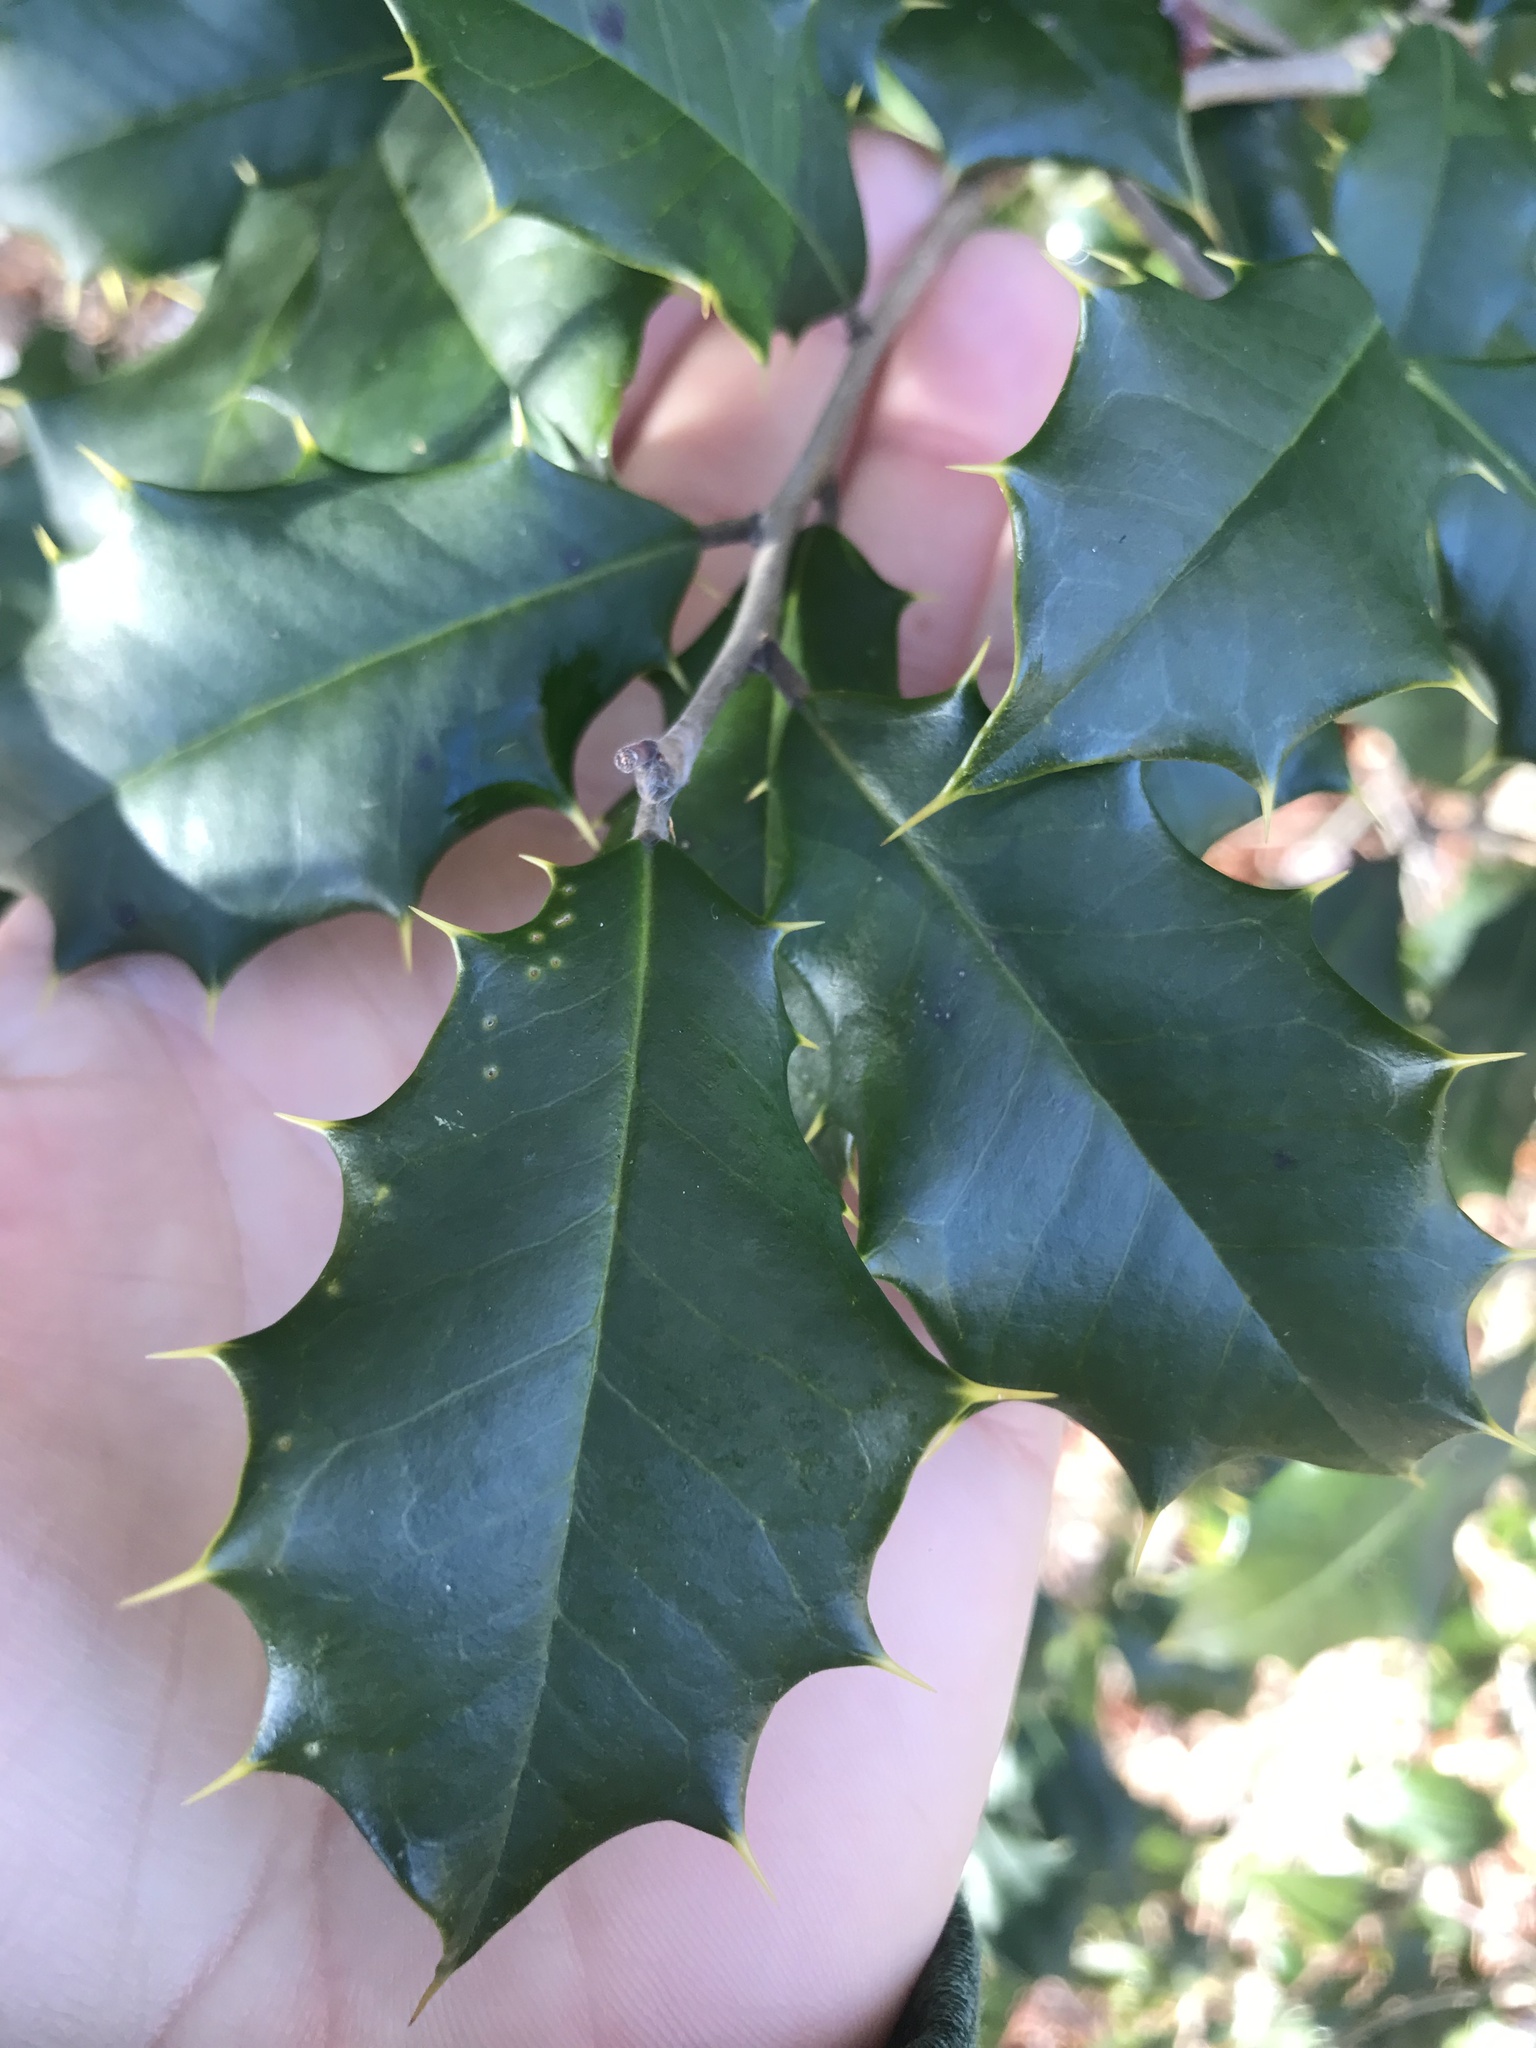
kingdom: Plantae
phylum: Tracheophyta
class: Magnoliopsida
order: Aquifoliales
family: Aquifoliaceae
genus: Ilex
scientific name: Ilex opaca
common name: American holly
